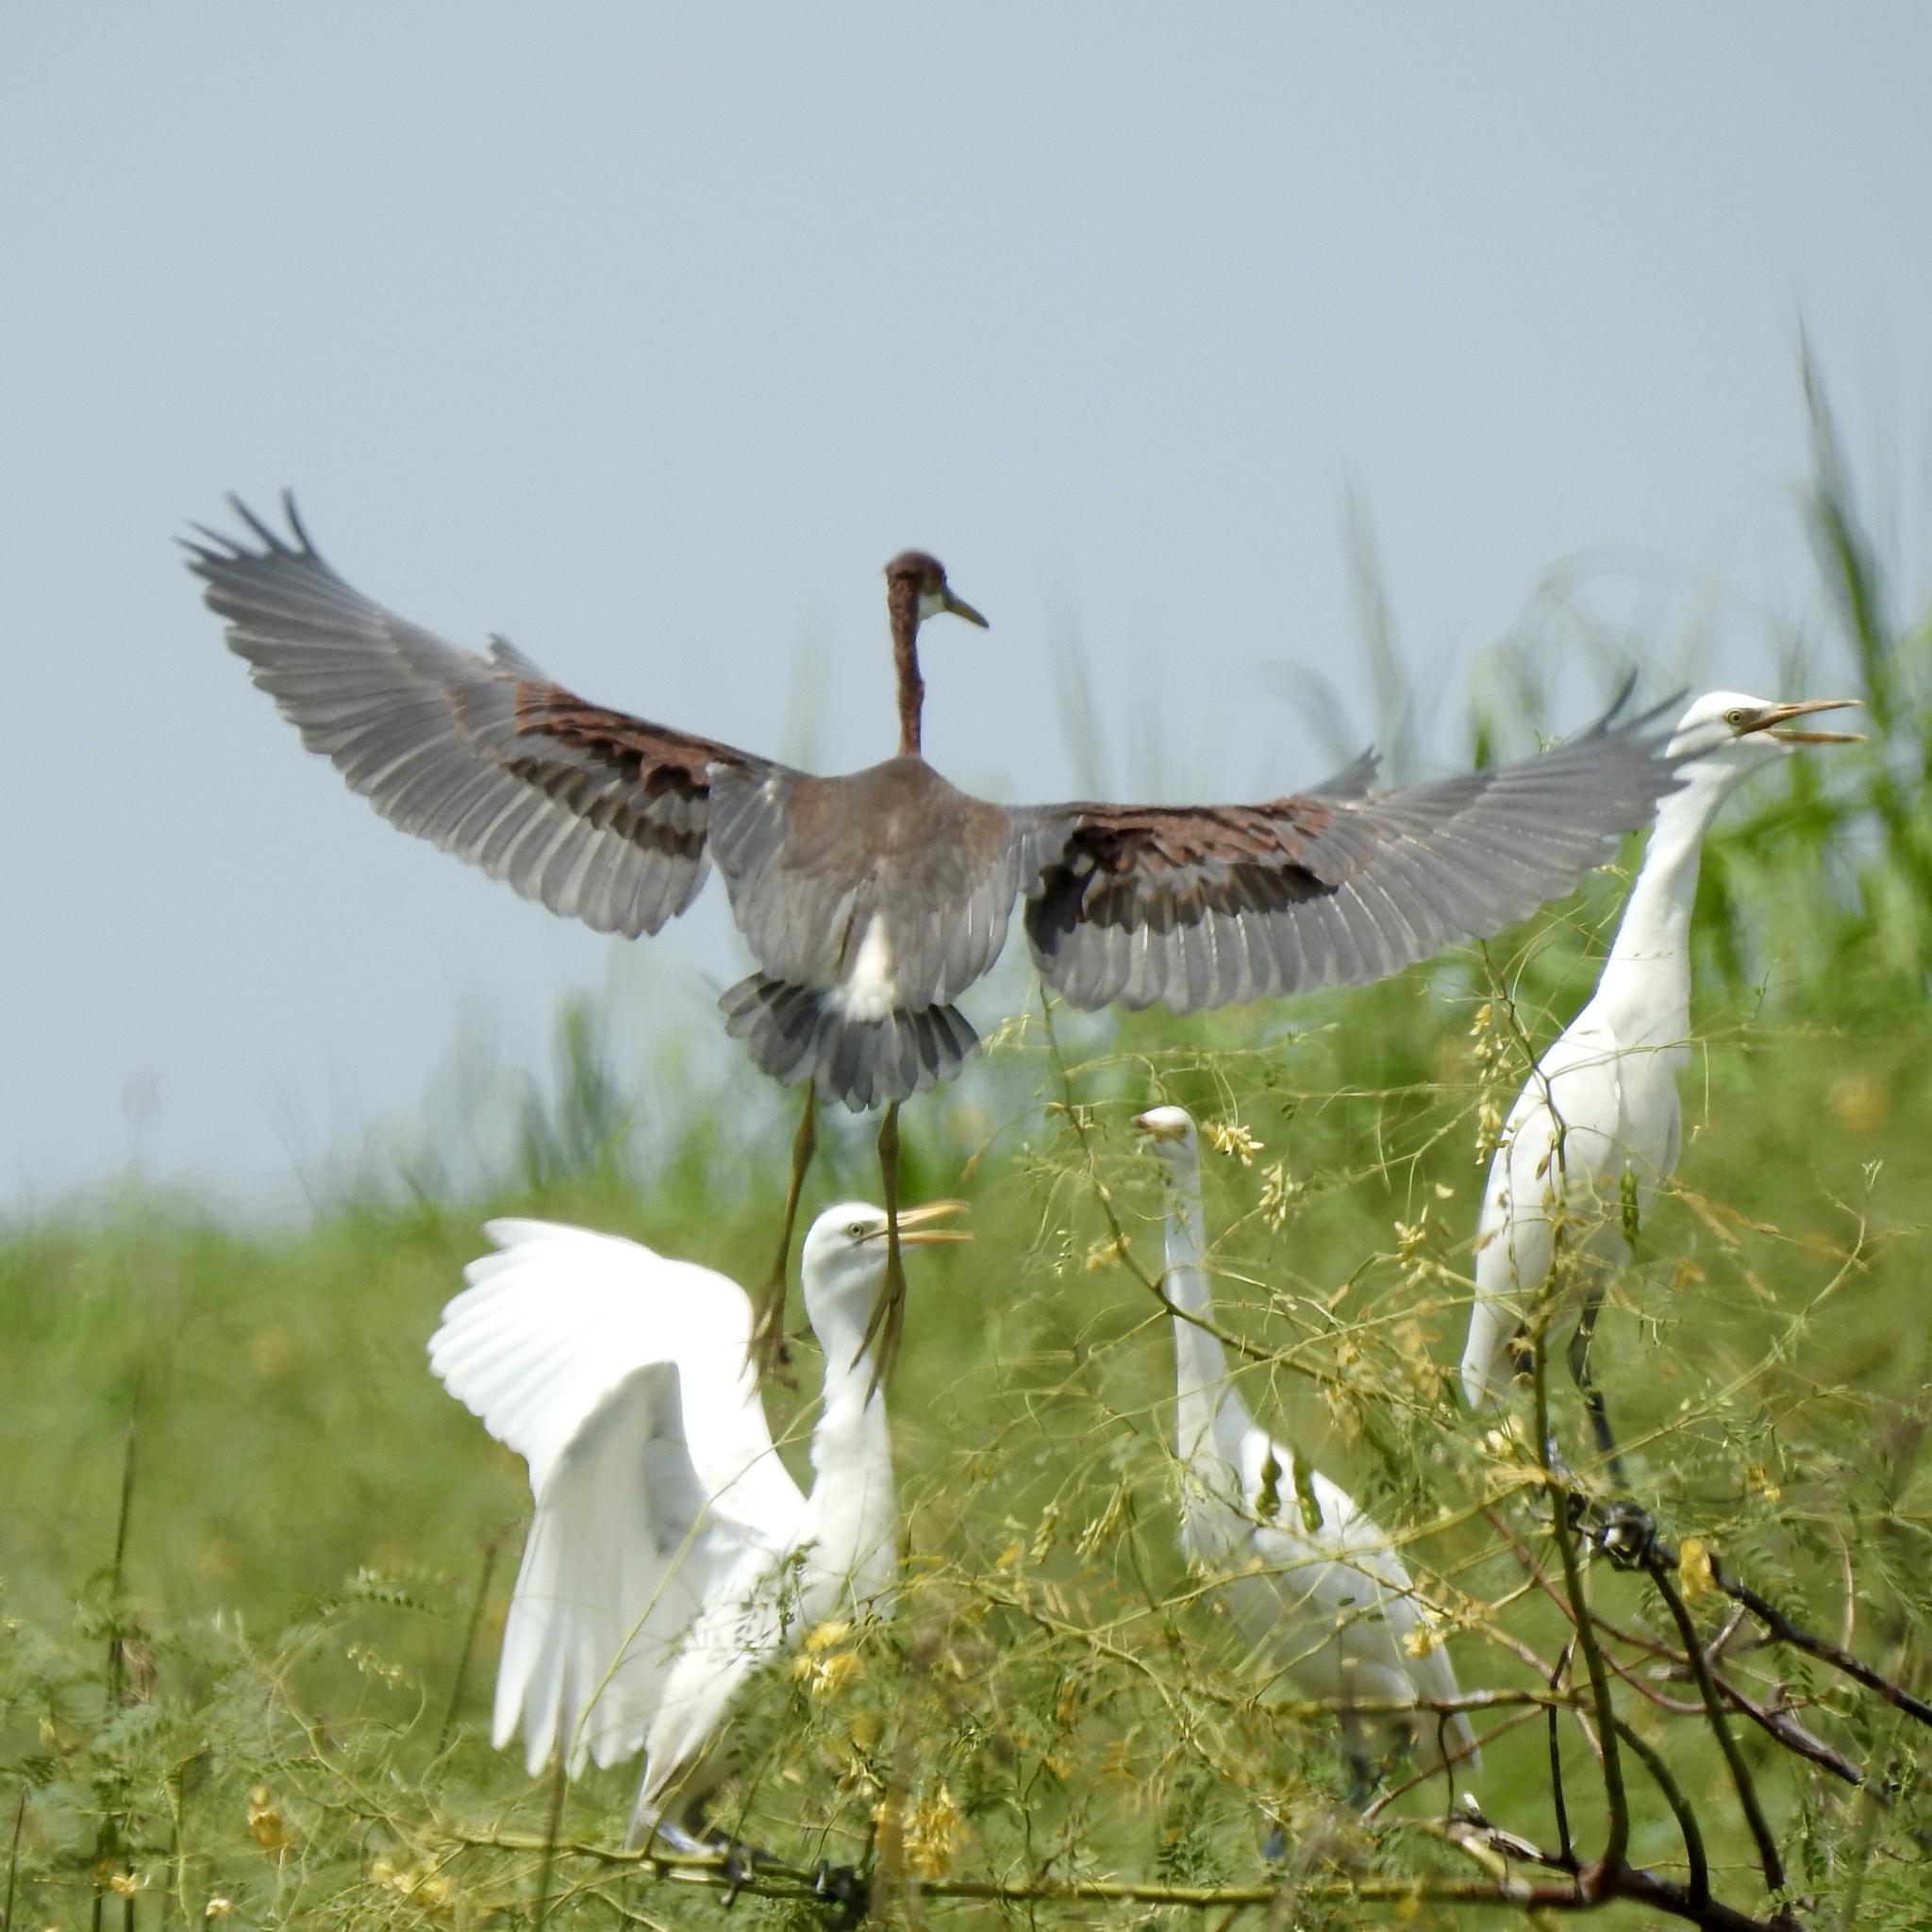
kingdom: Animalia
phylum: Chordata
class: Aves
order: Pelecaniformes
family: Ardeidae
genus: Egretta
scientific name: Egretta tricolor
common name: Tricolored heron
